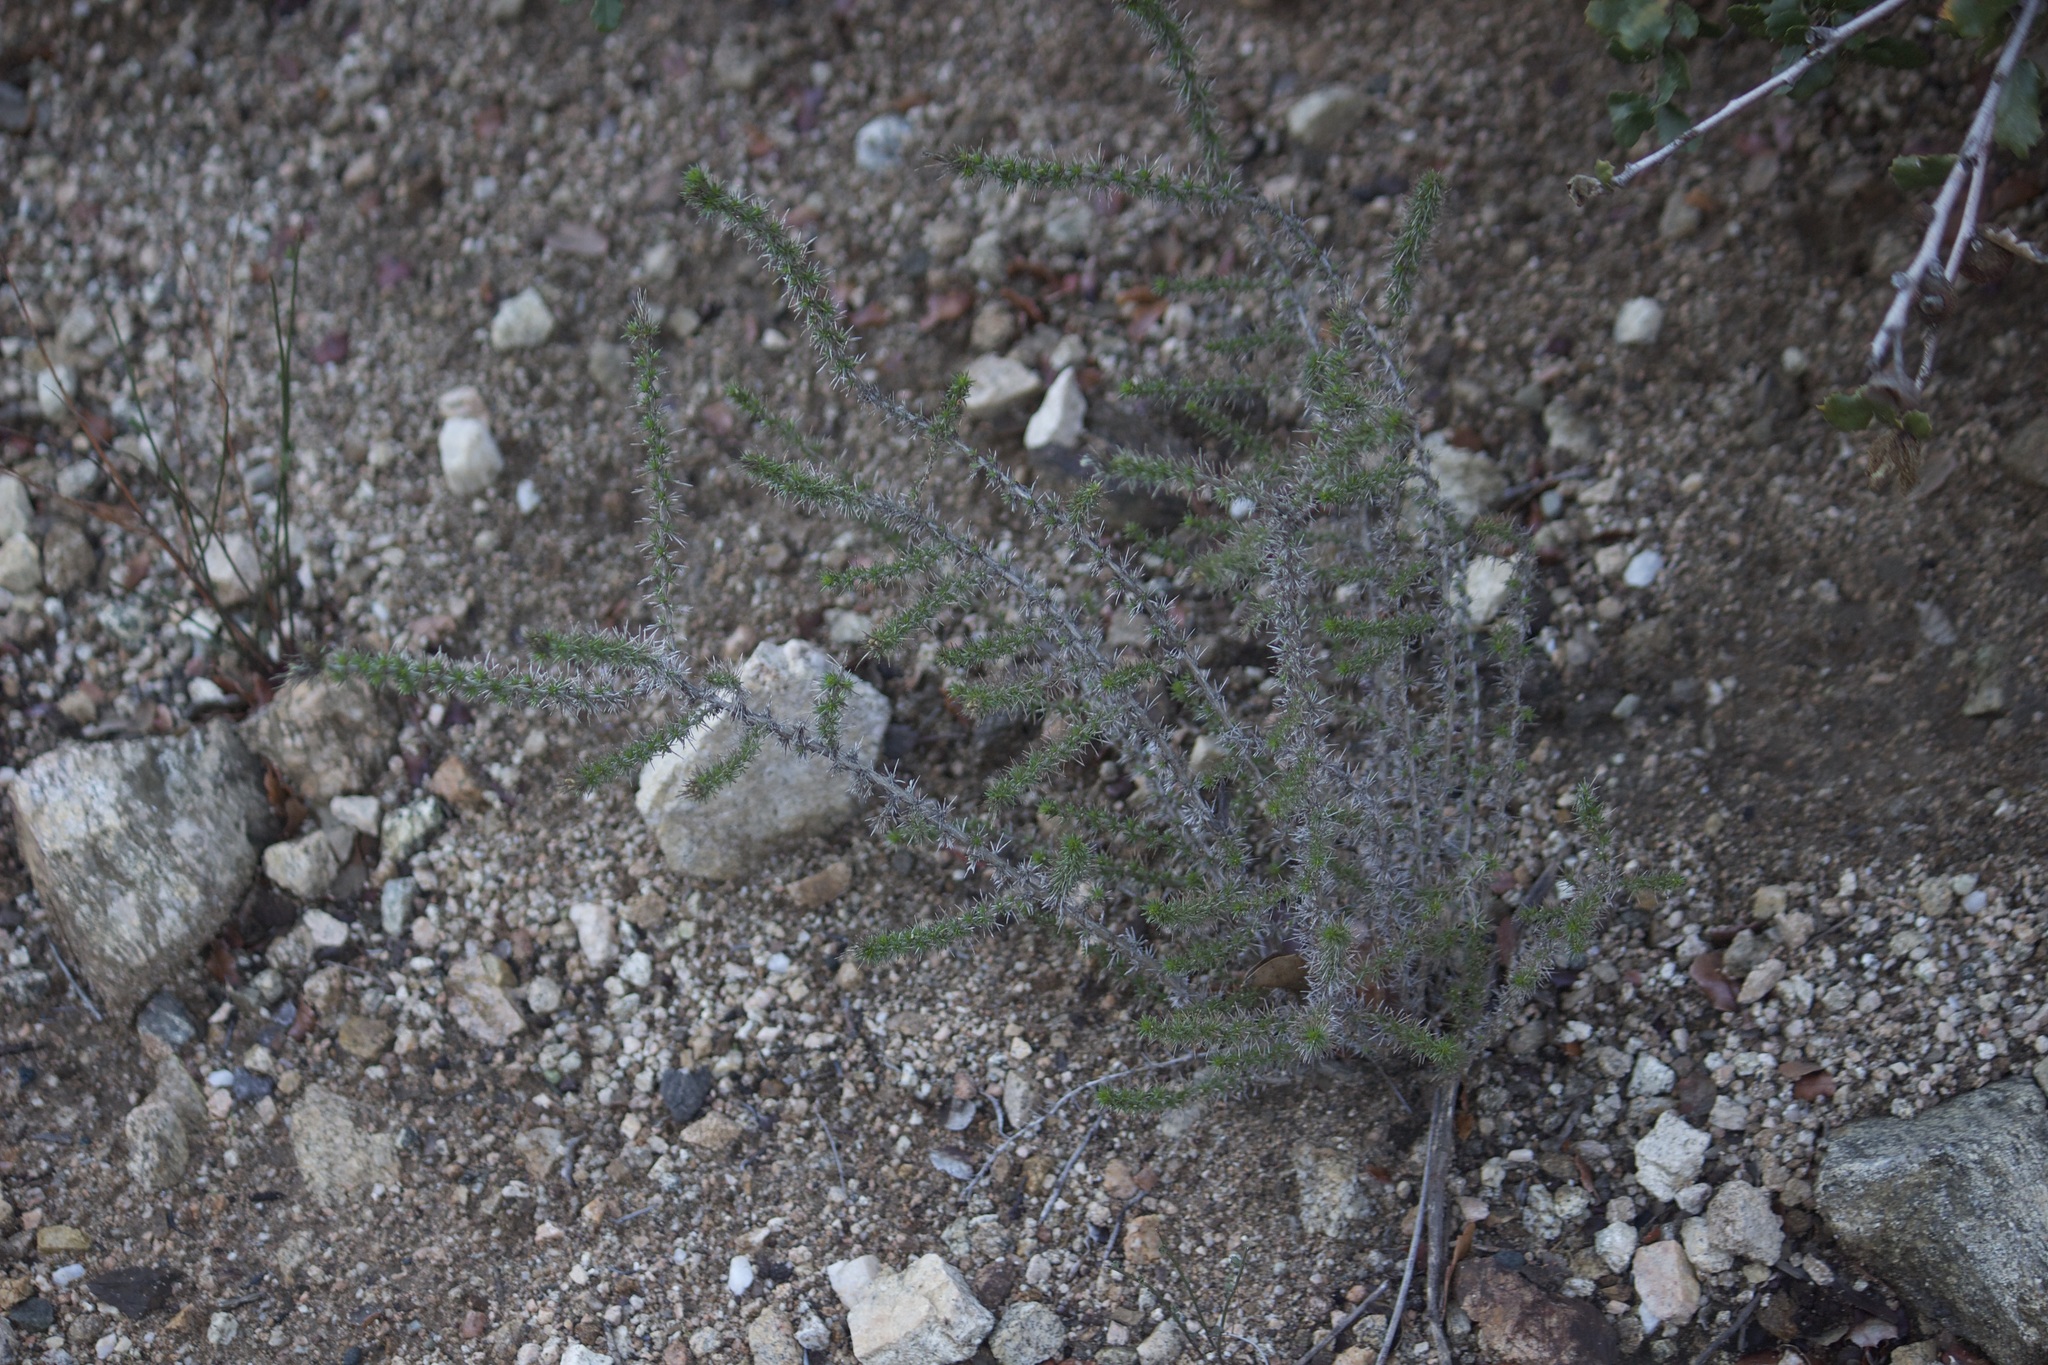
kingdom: Plantae
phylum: Tracheophyta
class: Magnoliopsida
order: Ericales
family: Polemoniaceae
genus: Linanthus
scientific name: Linanthus californicus
